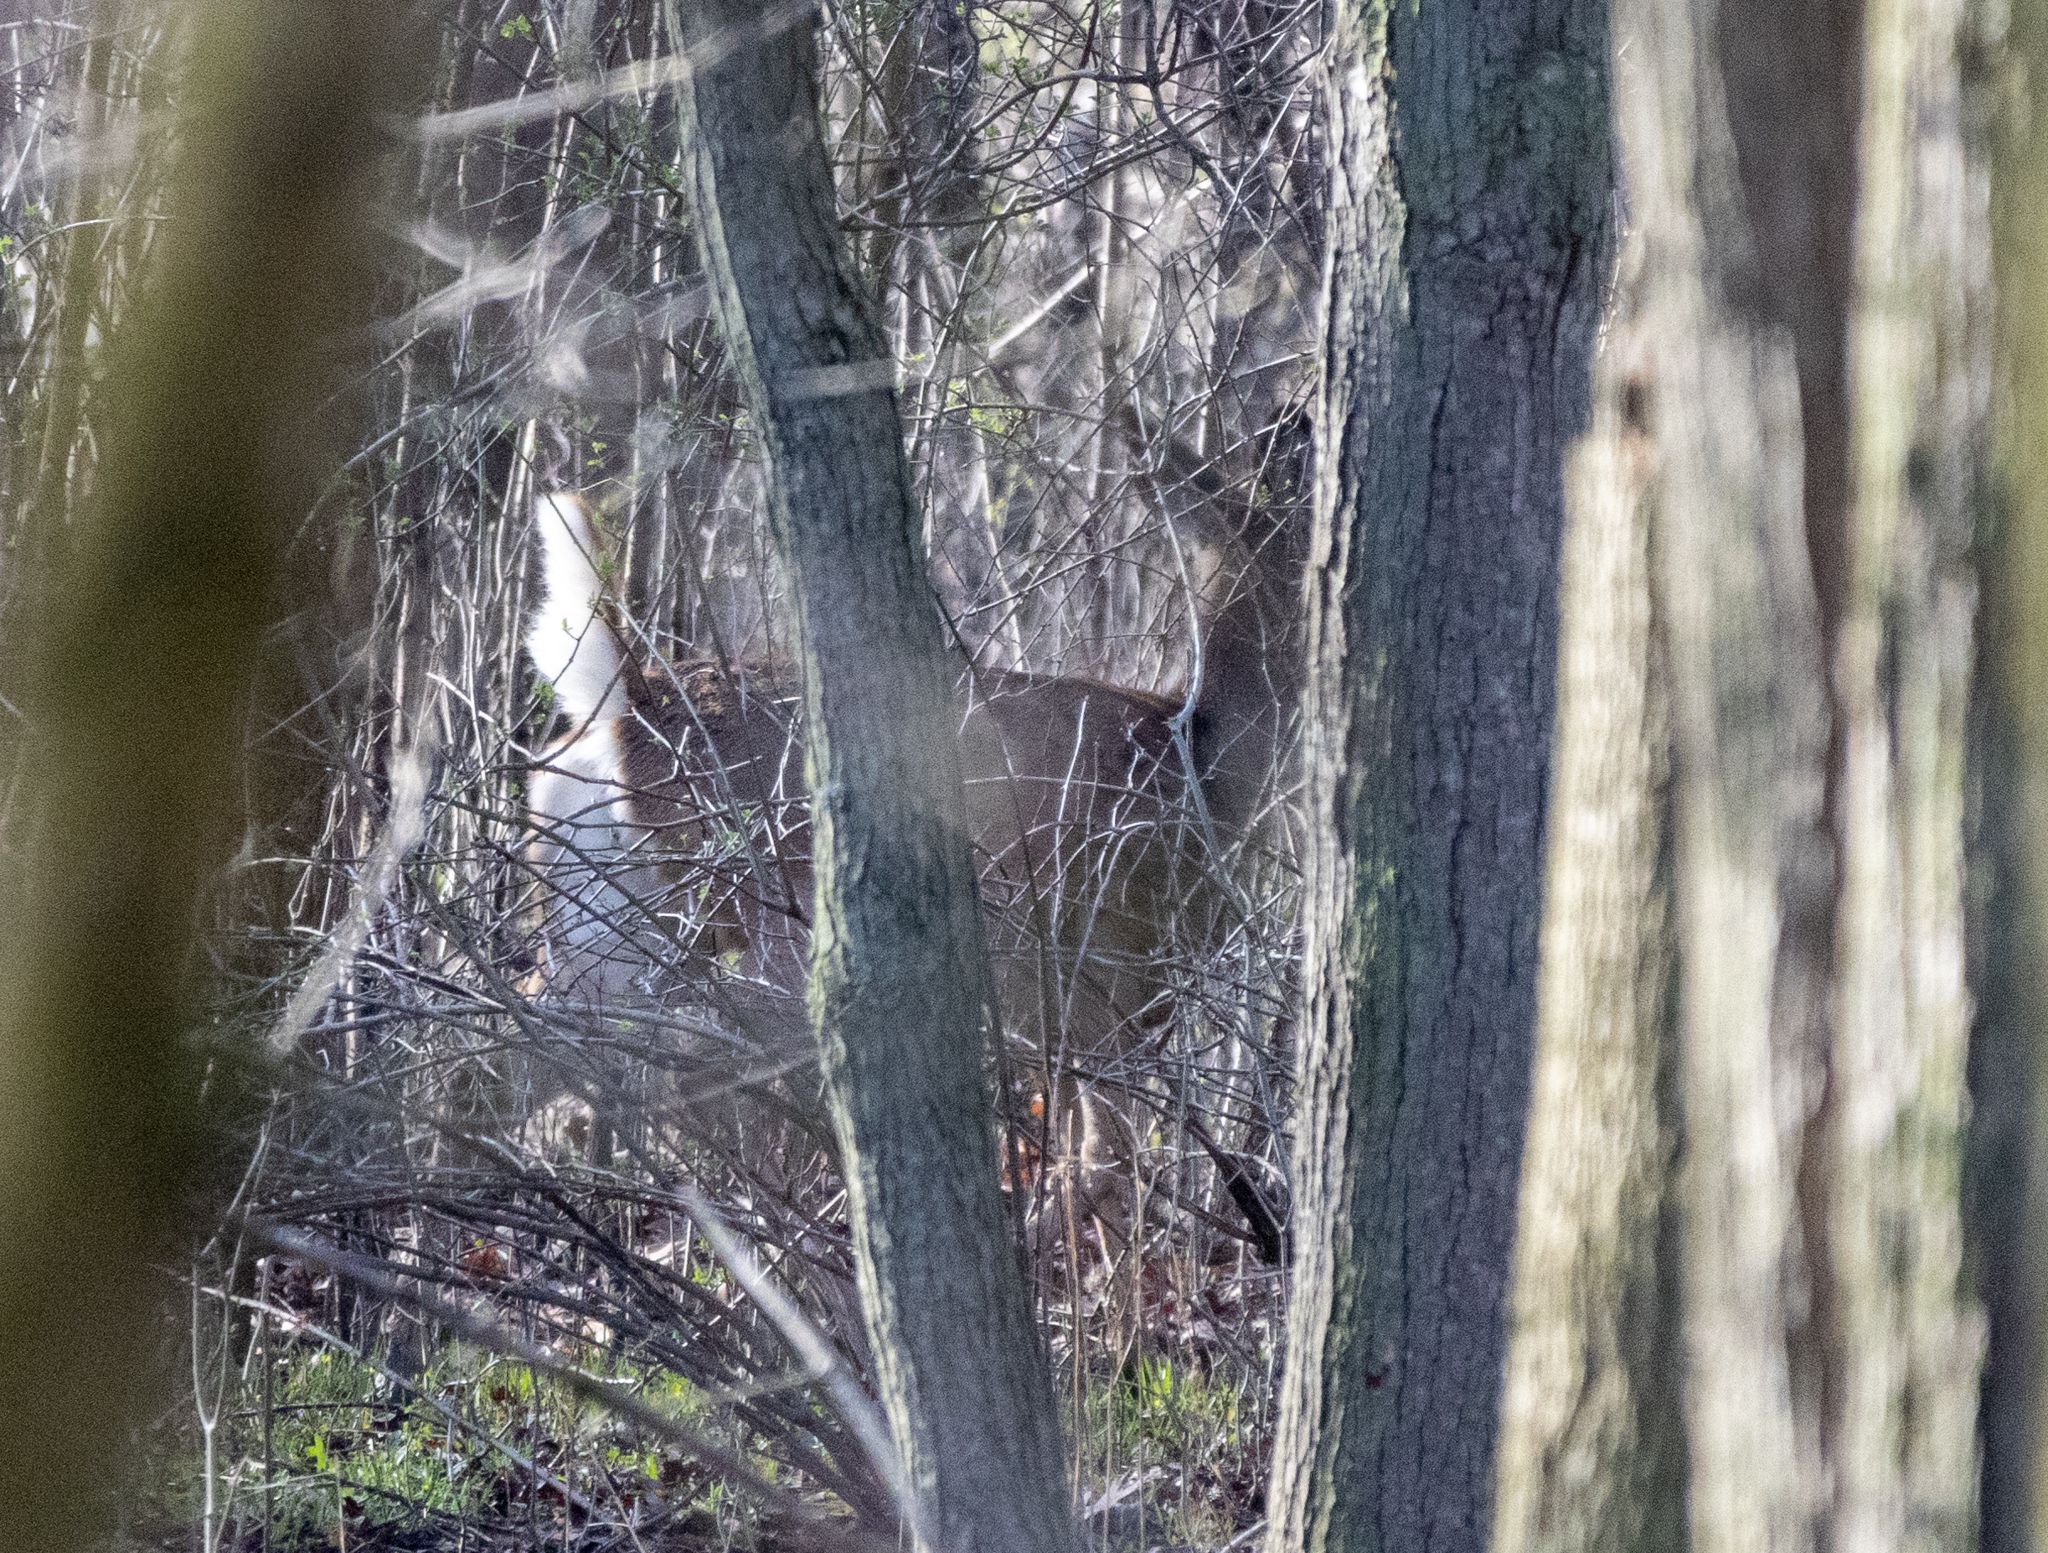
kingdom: Animalia
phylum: Chordata
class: Mammalia
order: Artiodactyla
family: Cervidae
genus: Odocoileus
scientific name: Odocoileus virginianus
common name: White-tailed deer
